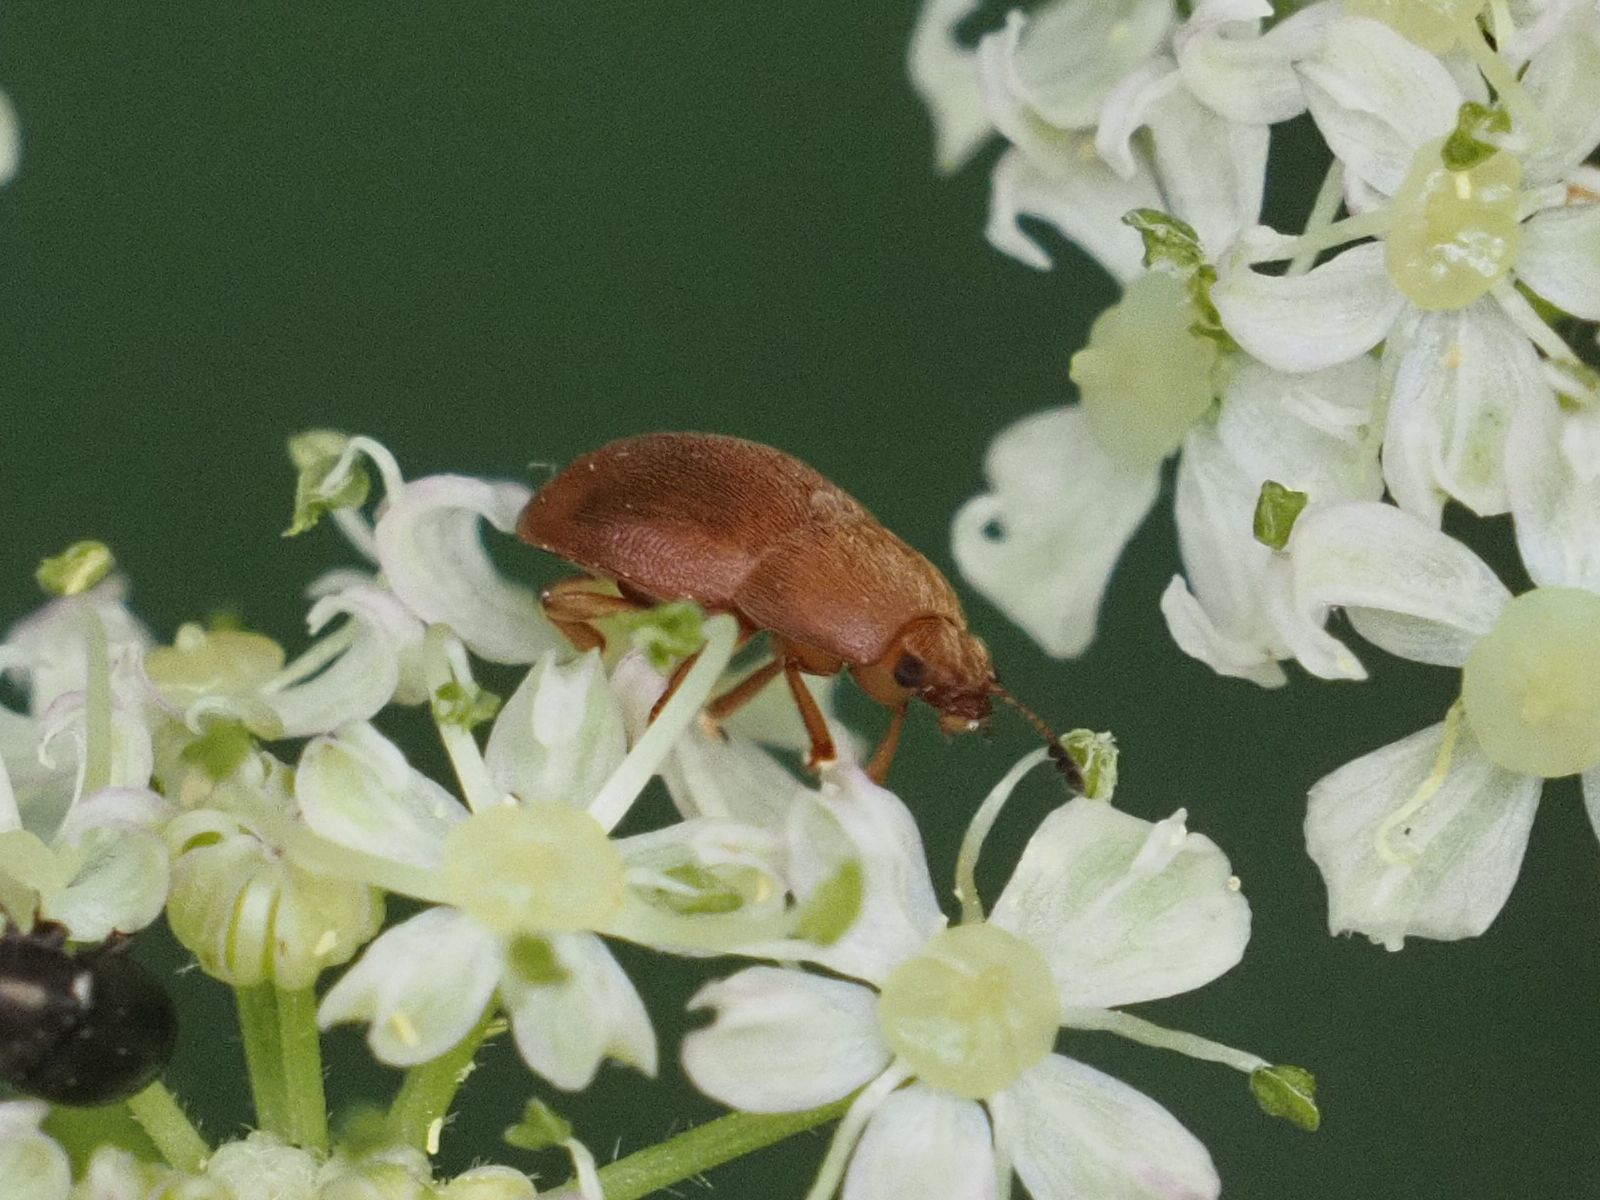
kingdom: Animalia
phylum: Arthropoda
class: Insecta
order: Coleoptera
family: Nitidulidae
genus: Cychramus
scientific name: Cychramus luteus
